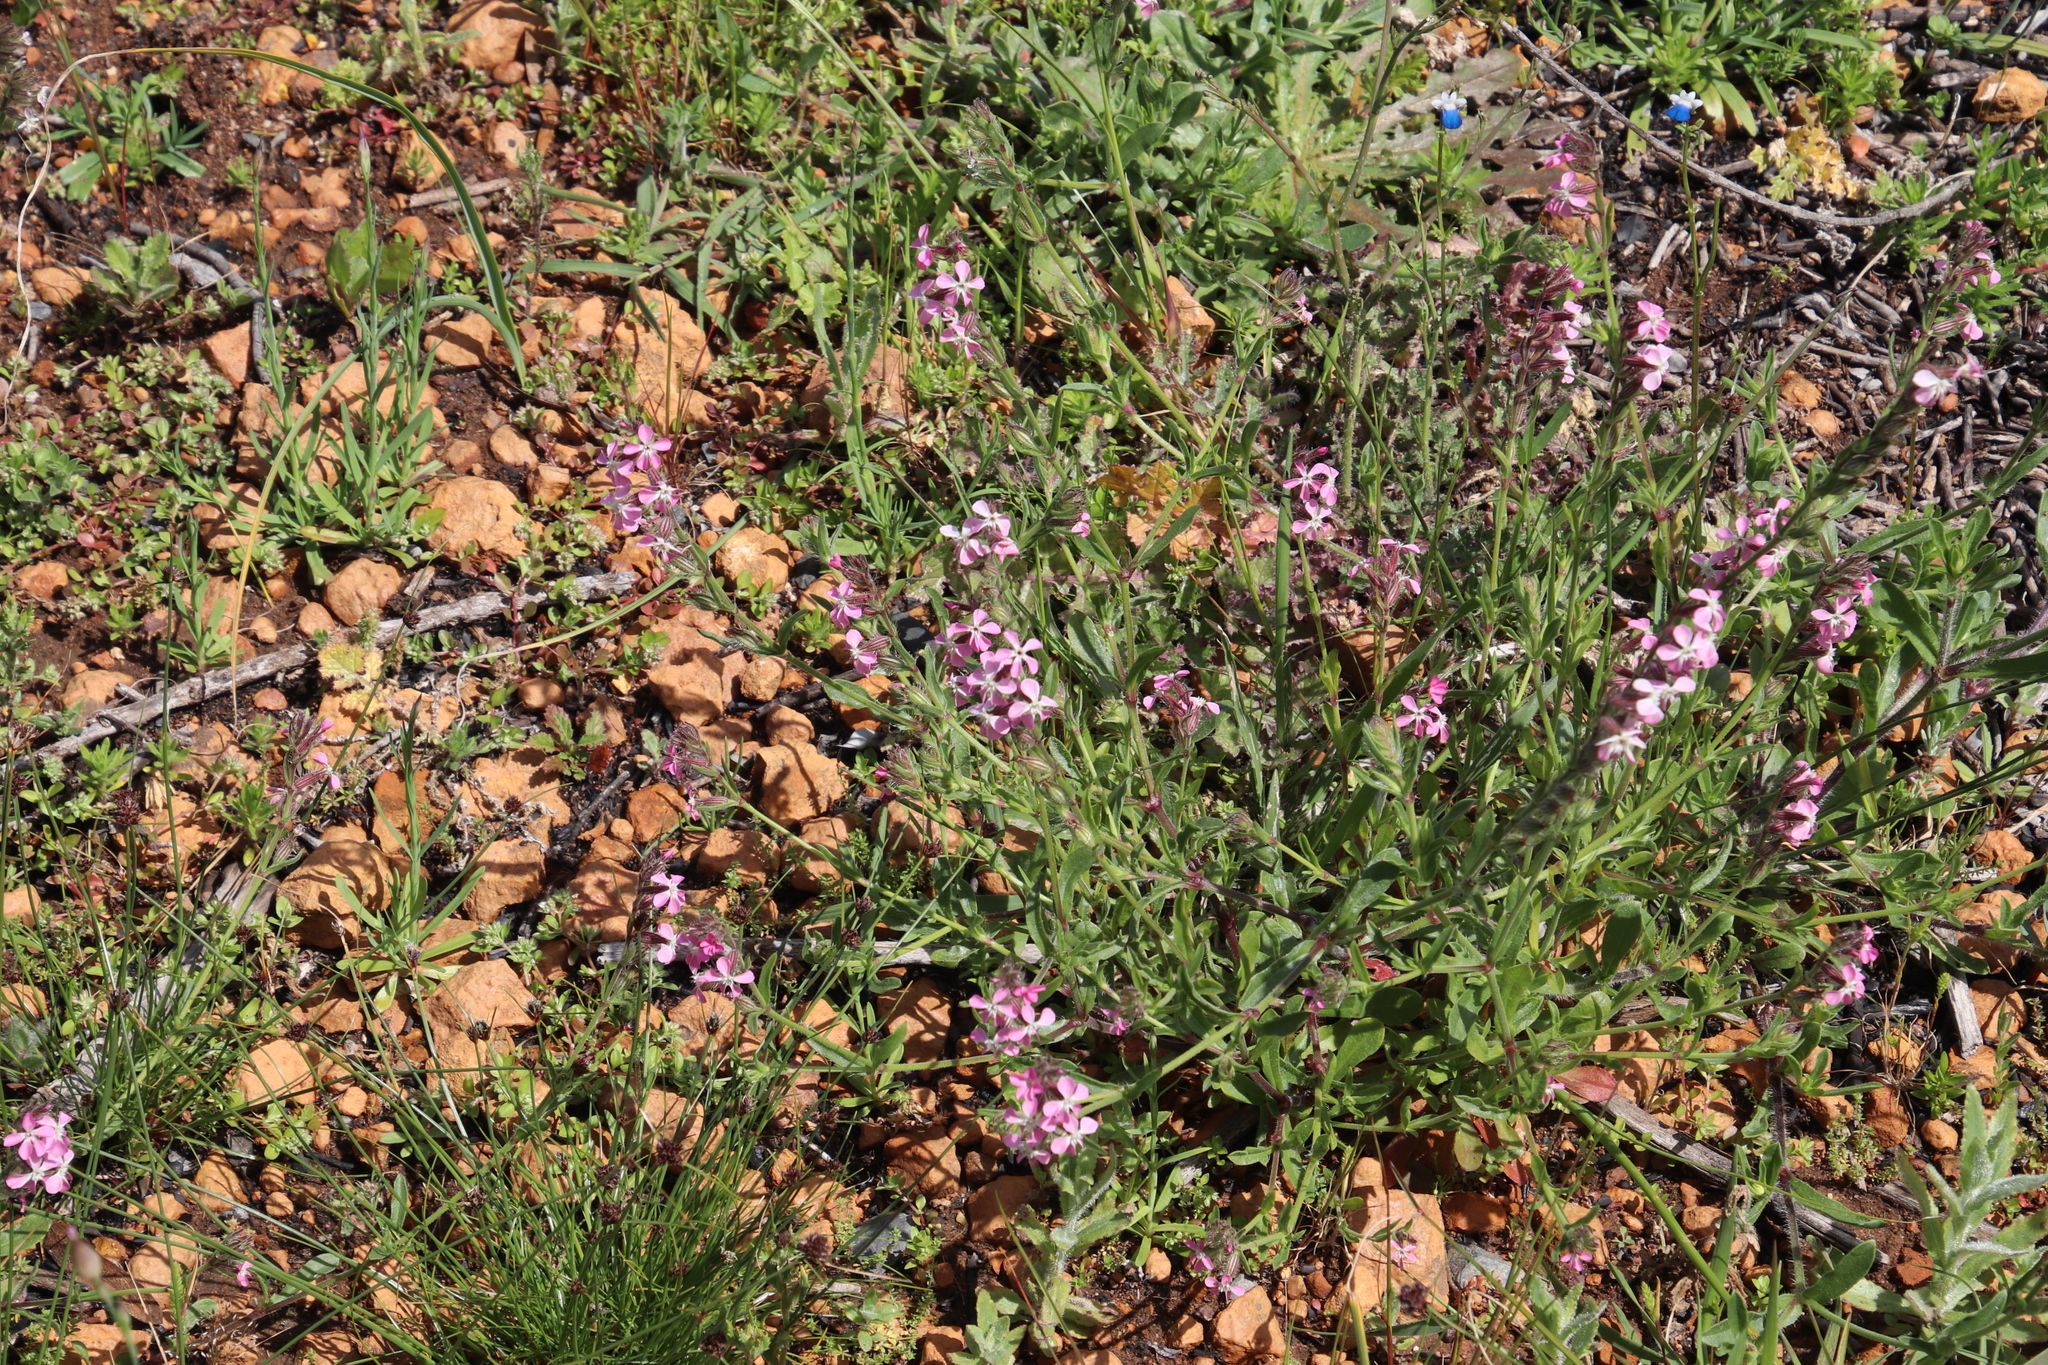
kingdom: Plantae
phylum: Tracheophyta
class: Magnoliopsida
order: Caryophyllales
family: Caryophyllaceae
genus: Silene
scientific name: Silene gallica
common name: Small-flowered catchfly
